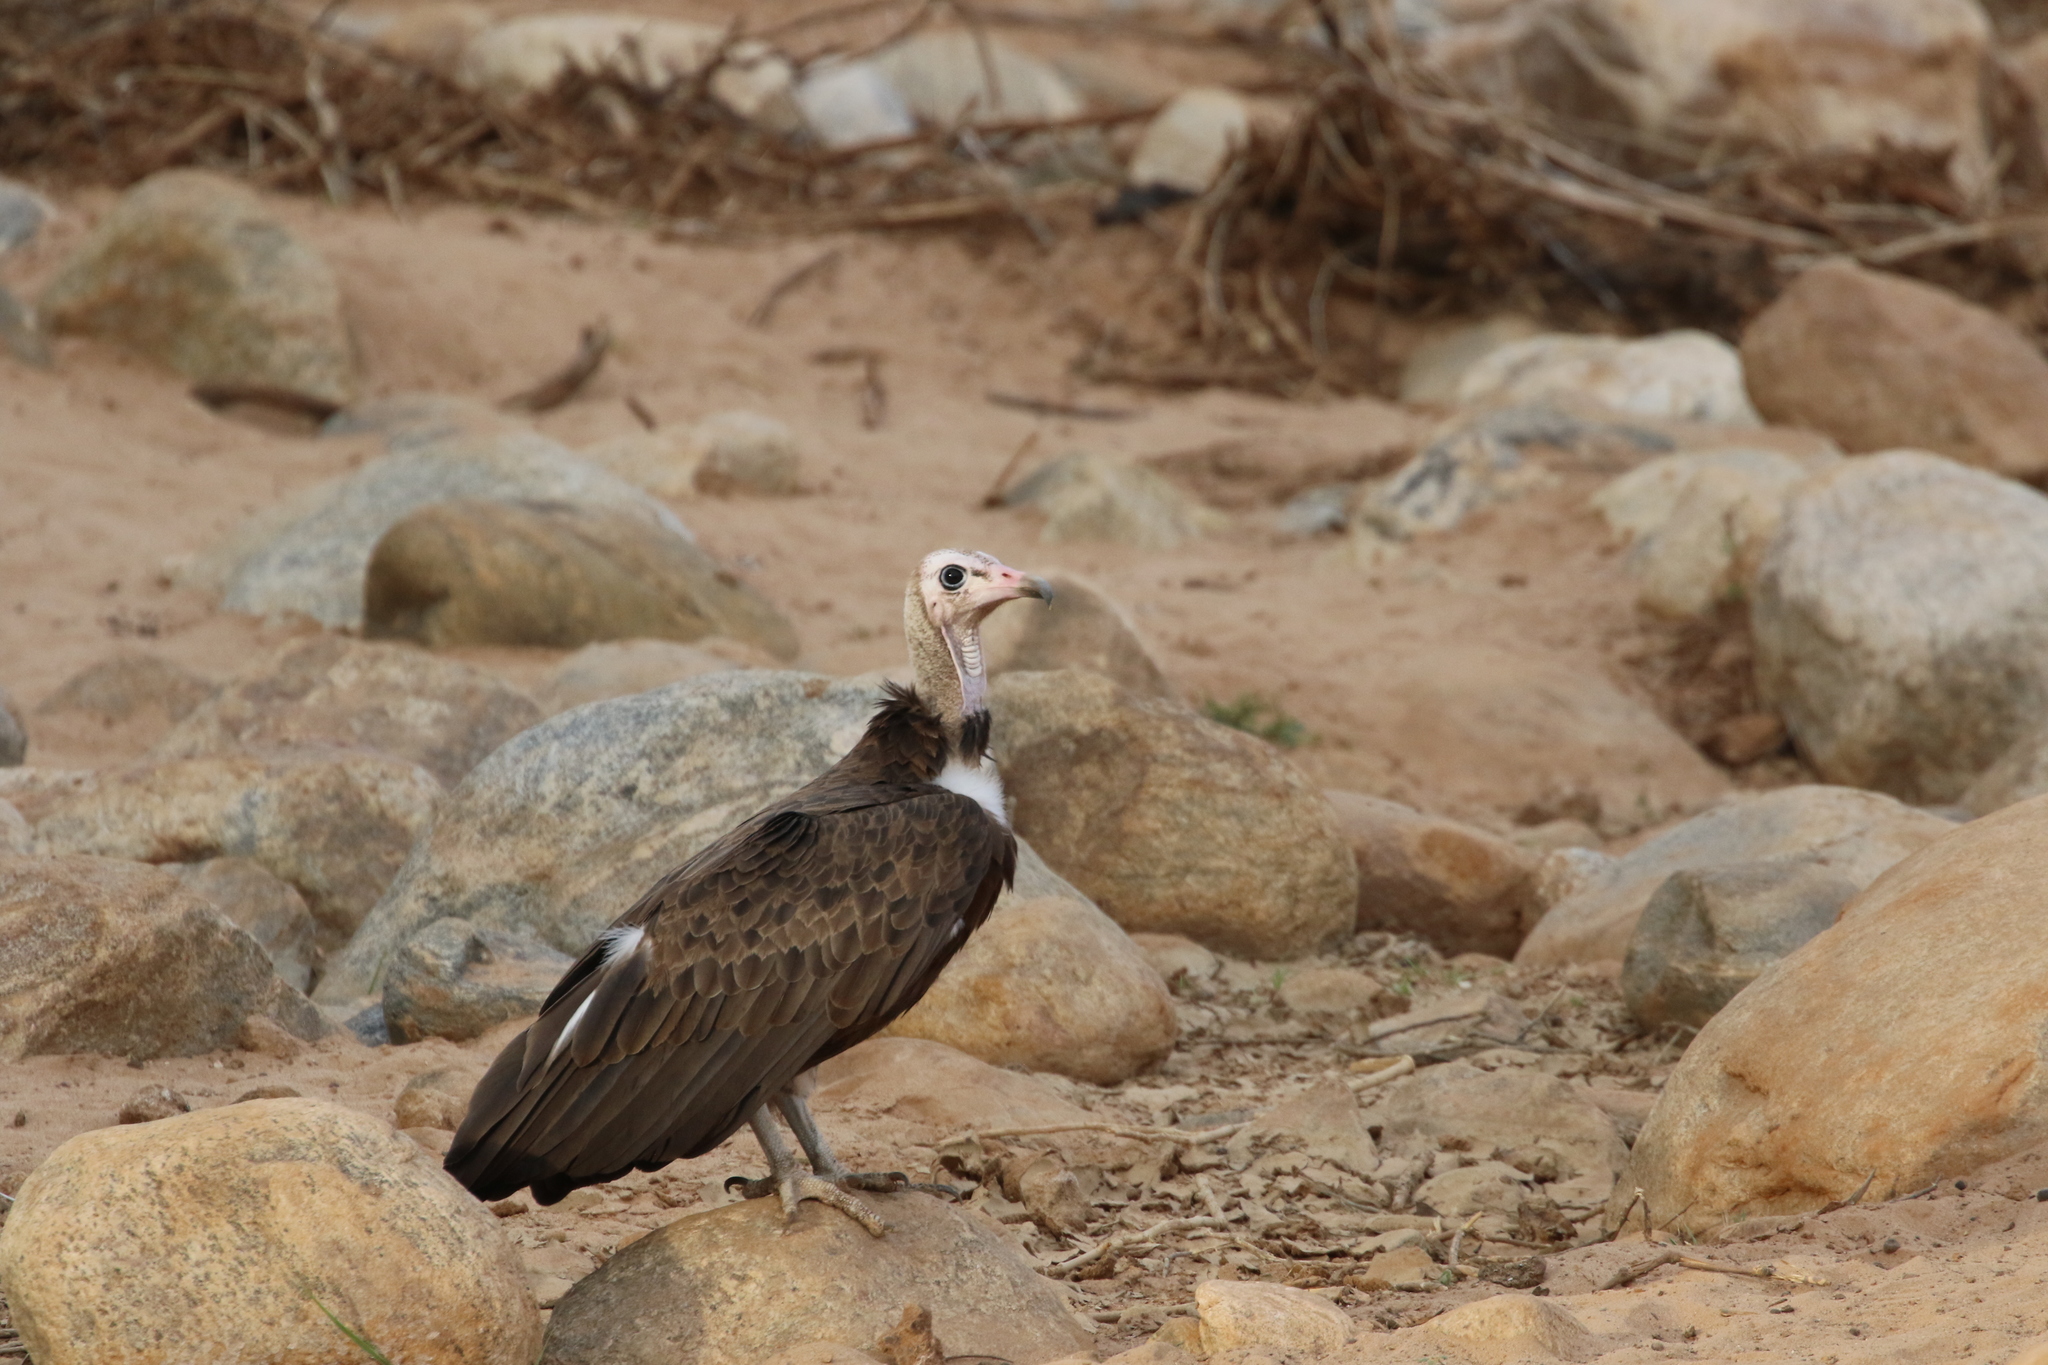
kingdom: Animalia
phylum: Chordata
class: Aves
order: Accipitriformes
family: Accipitridae
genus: Necrosyrtes
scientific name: Necrosyrtes monachus
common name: Hooded vulture
